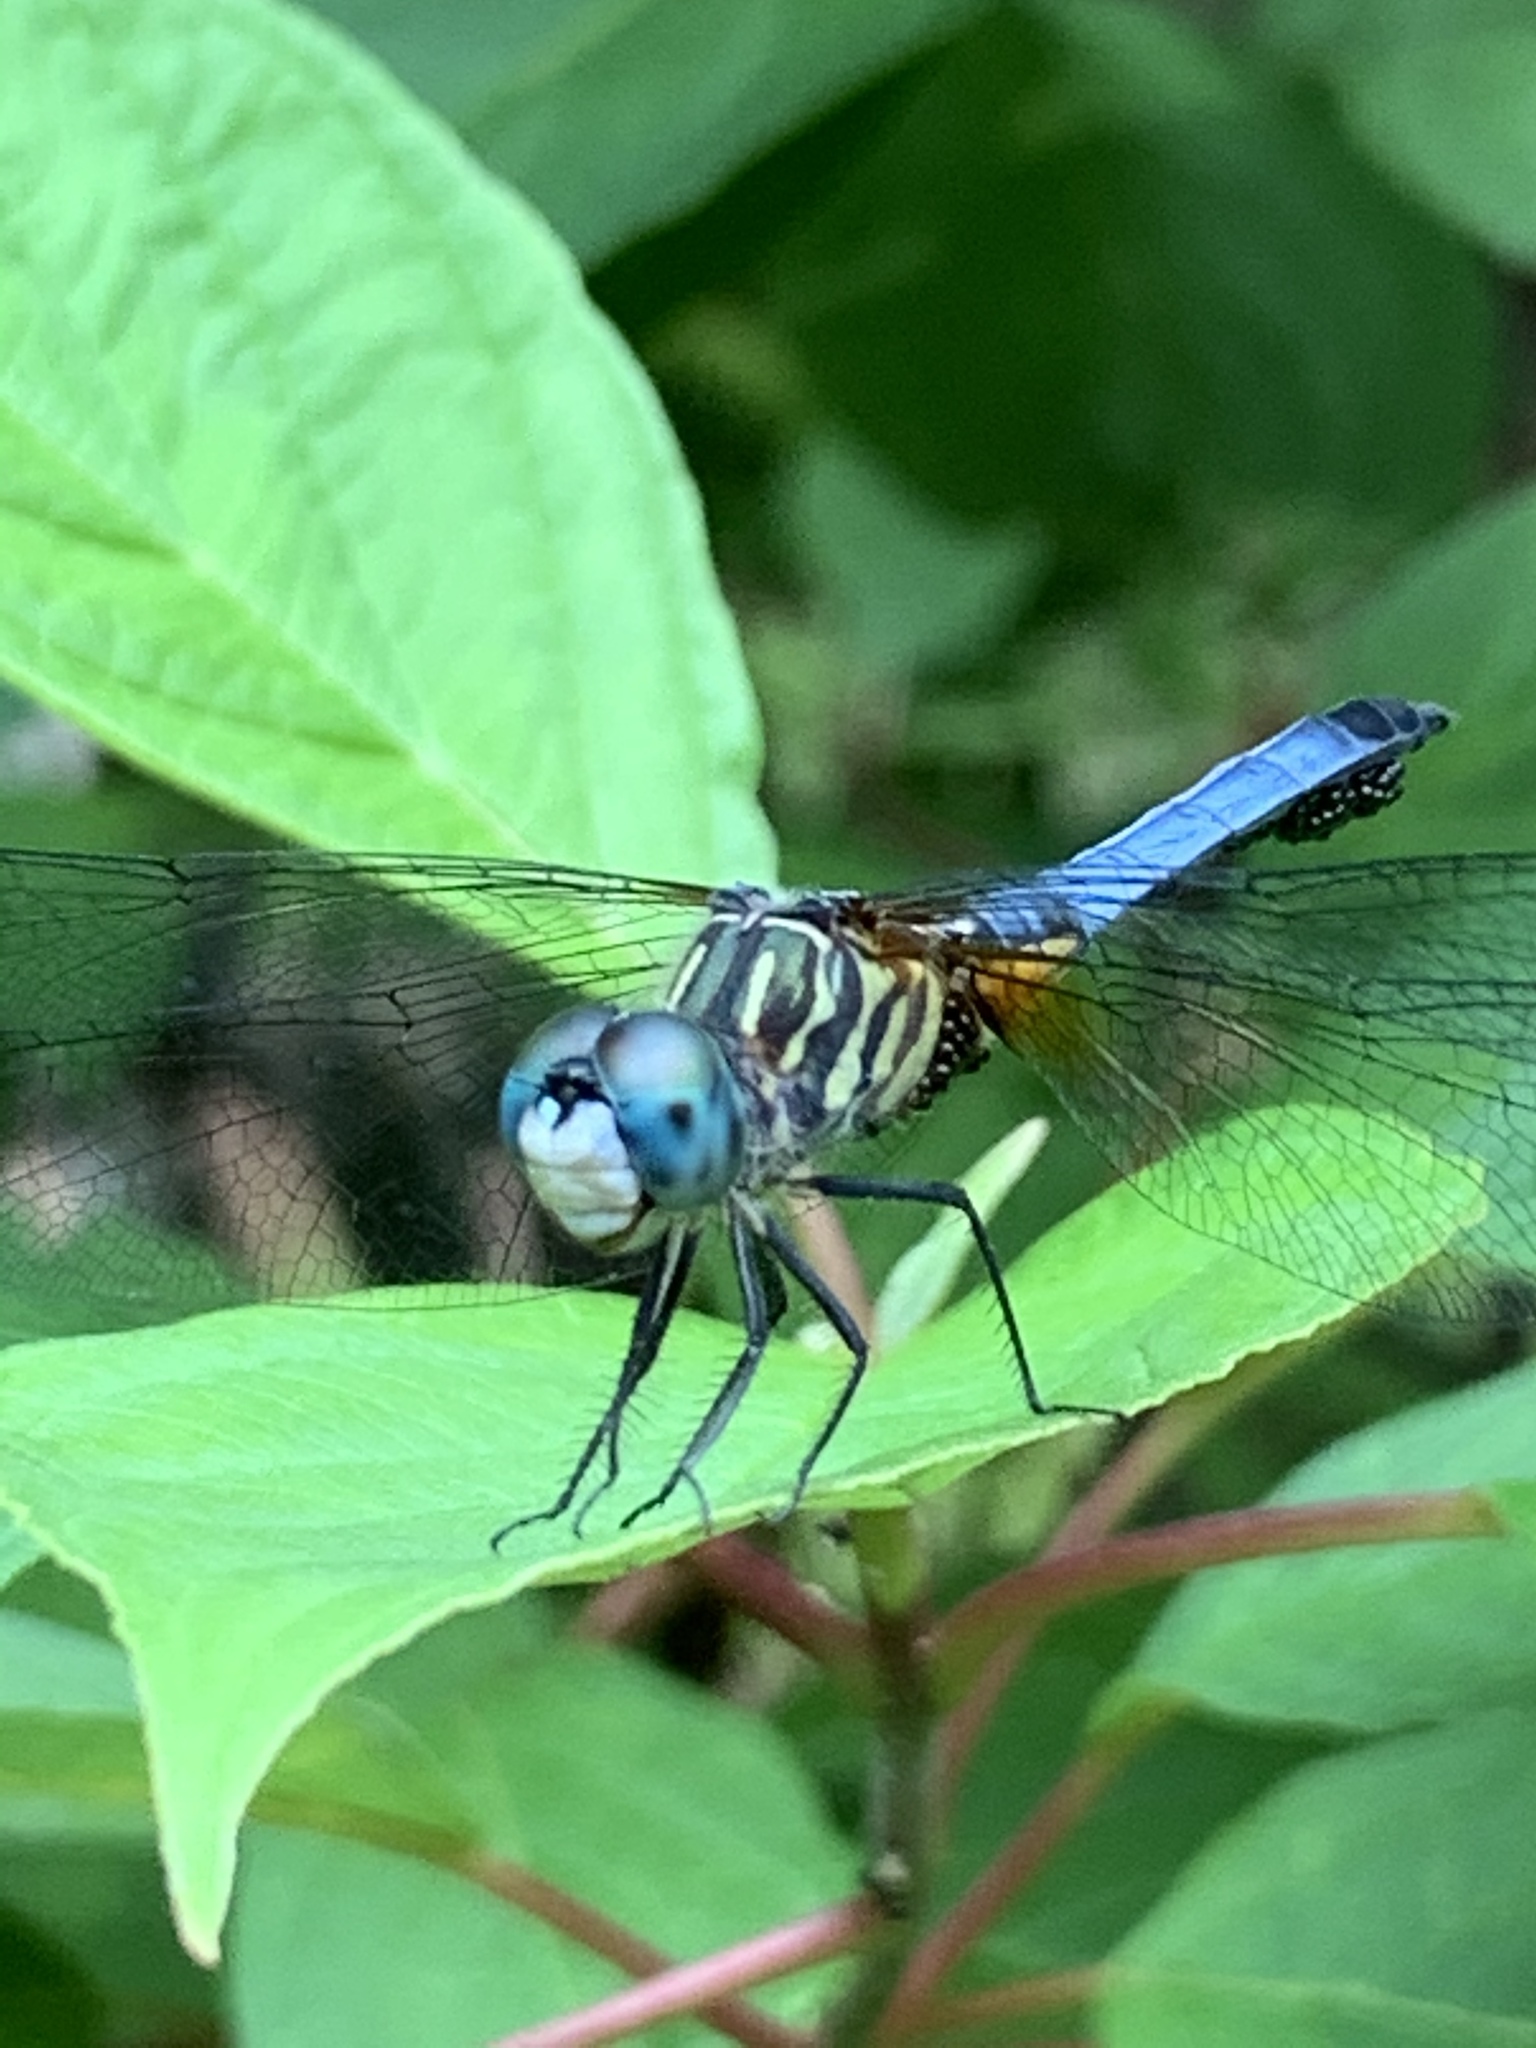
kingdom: Animalia
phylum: Arthropoda
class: Insecta
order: Odonata
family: Libellulidae
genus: Pachydiplax
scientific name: Pachydiplax longipennis
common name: Blue dasher
